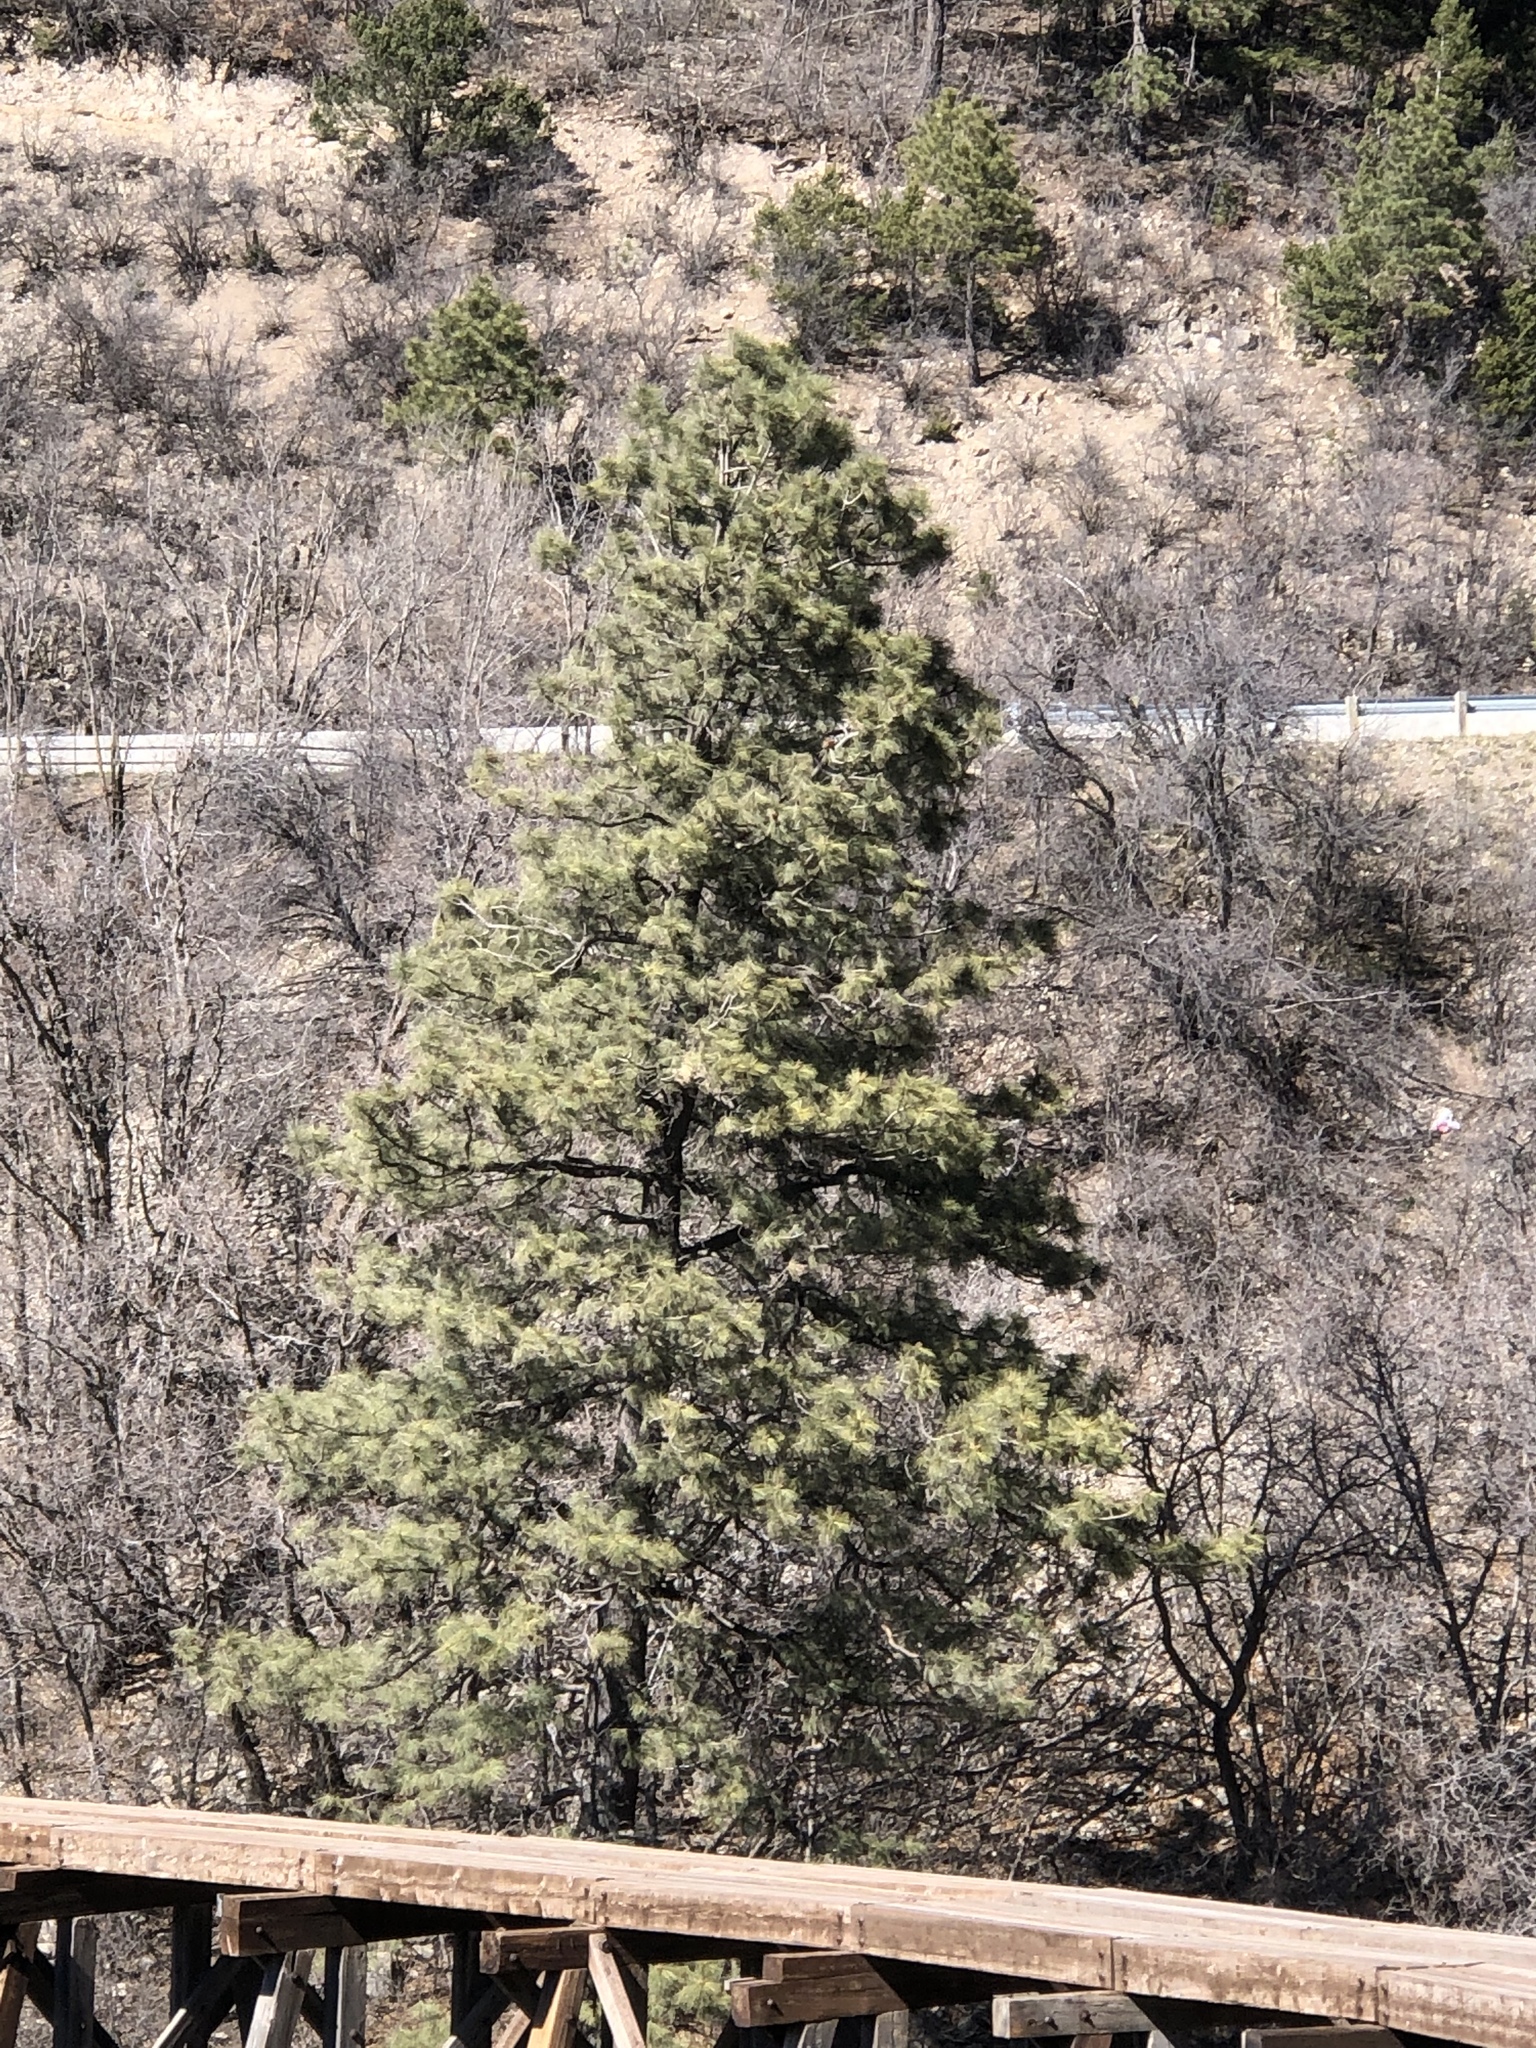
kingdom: Plantae
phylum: Tracheophyta
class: Pinopsida
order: Pinales
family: Pinaceae
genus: Pinus
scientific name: Pinus ponderosa
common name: Western yellow-pine
